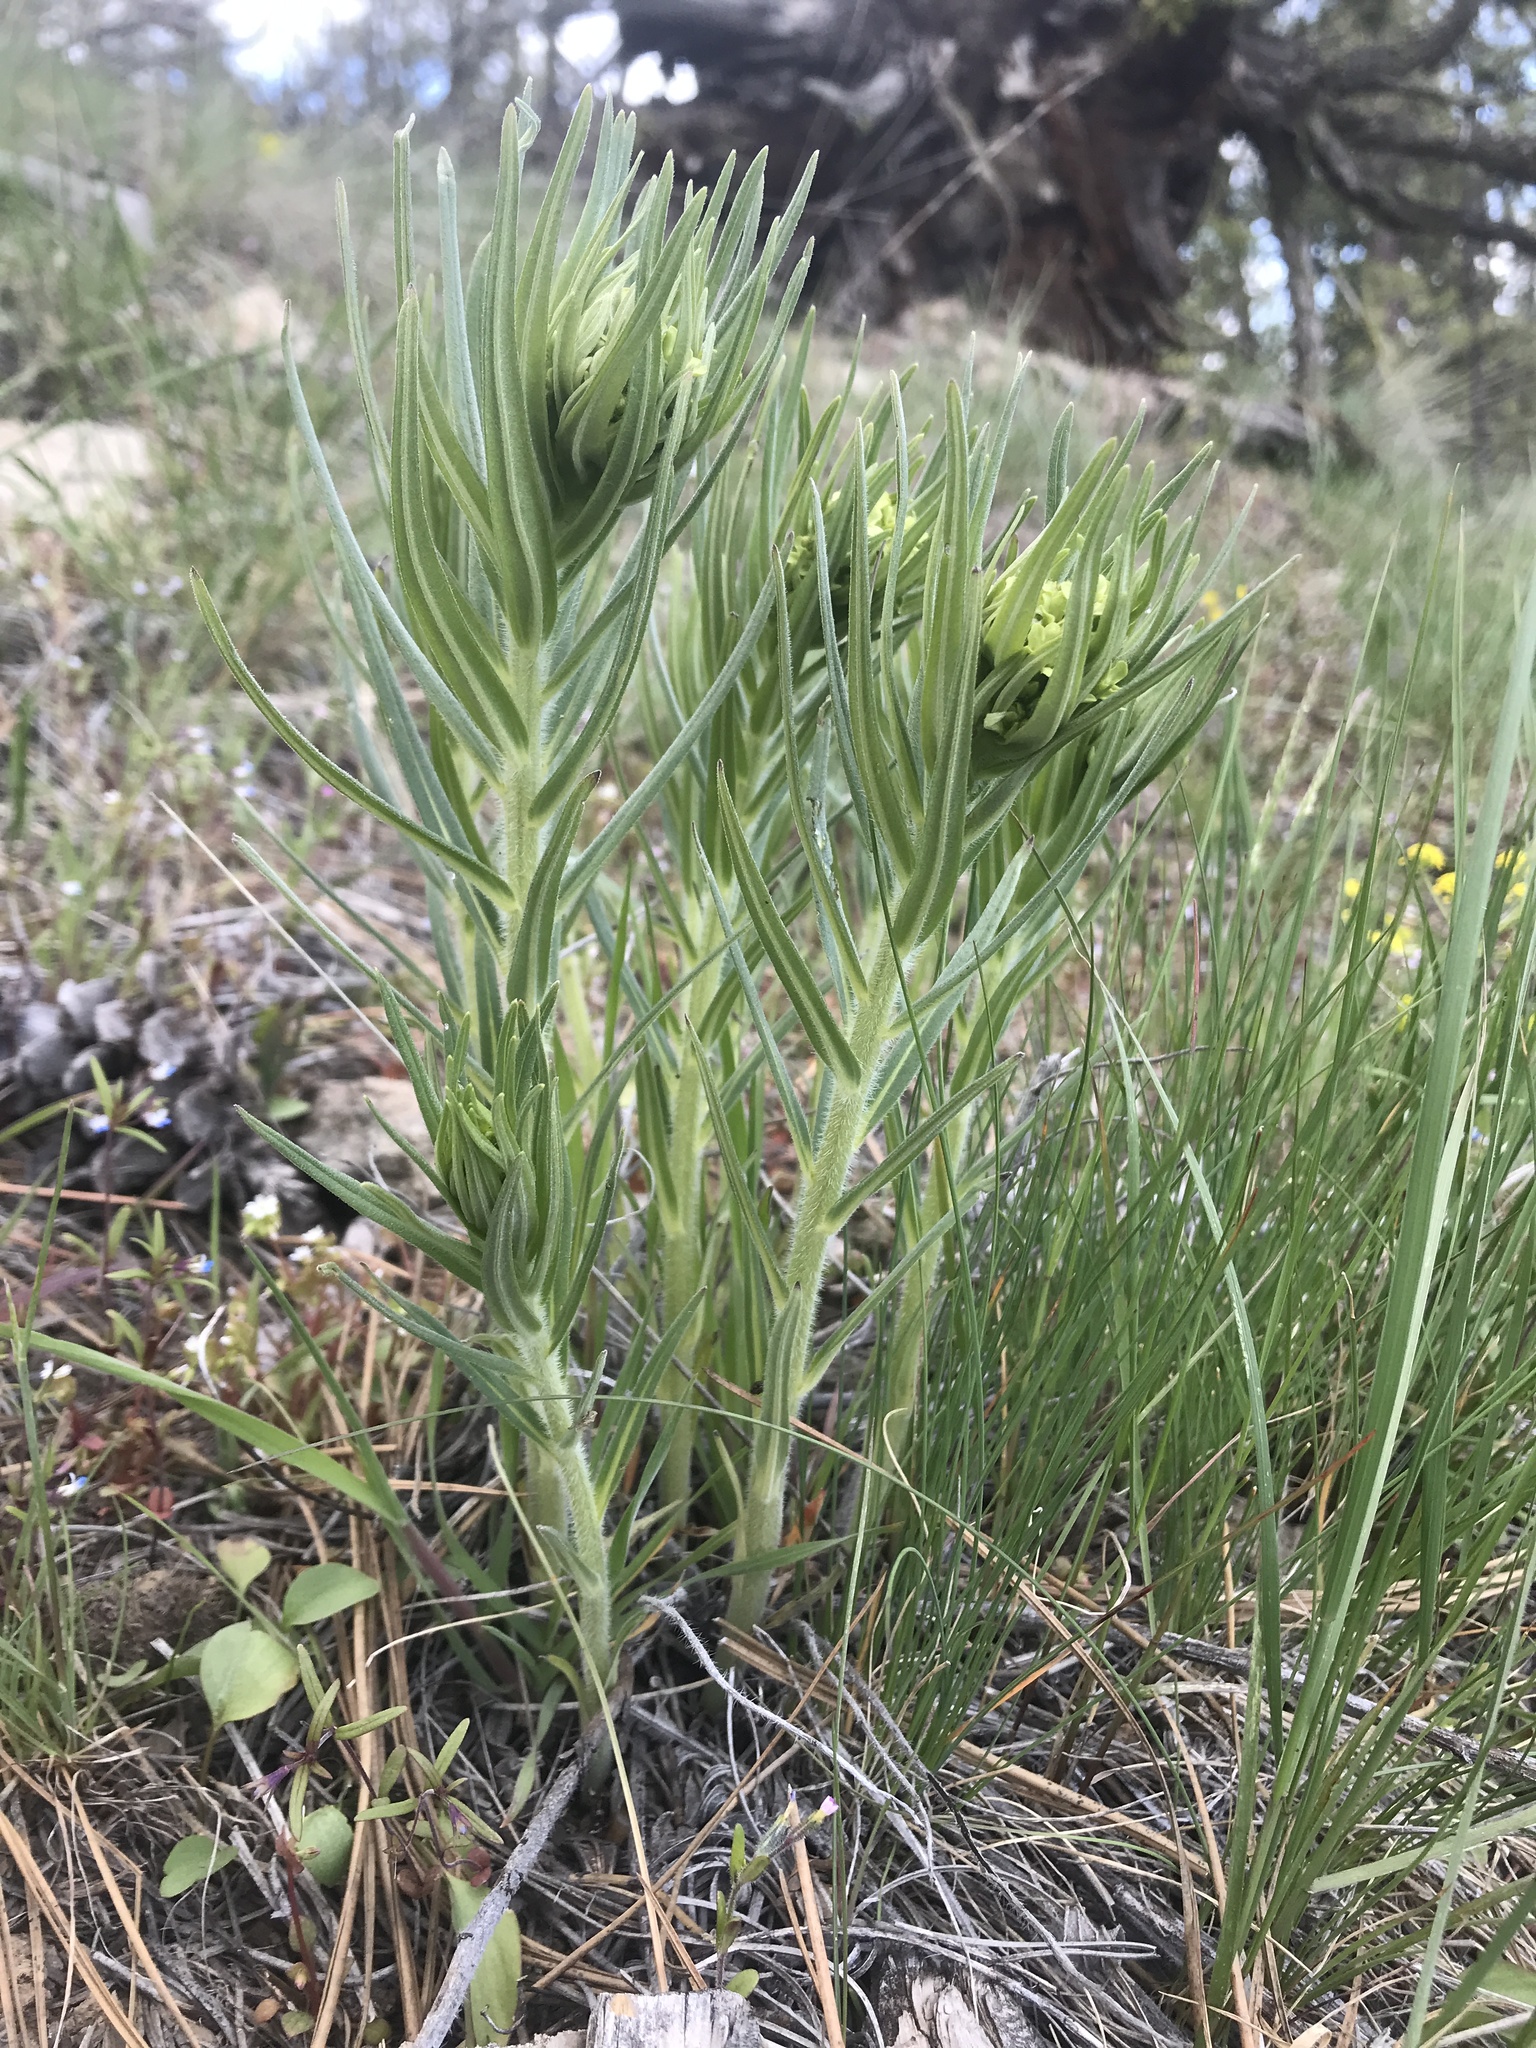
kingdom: Plantae
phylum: Tracheophyta
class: Magnoliopsida
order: Boraginales
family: Boraginaceae
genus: Lithospermum
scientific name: Lithospermum ruderale
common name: Western gromwell
